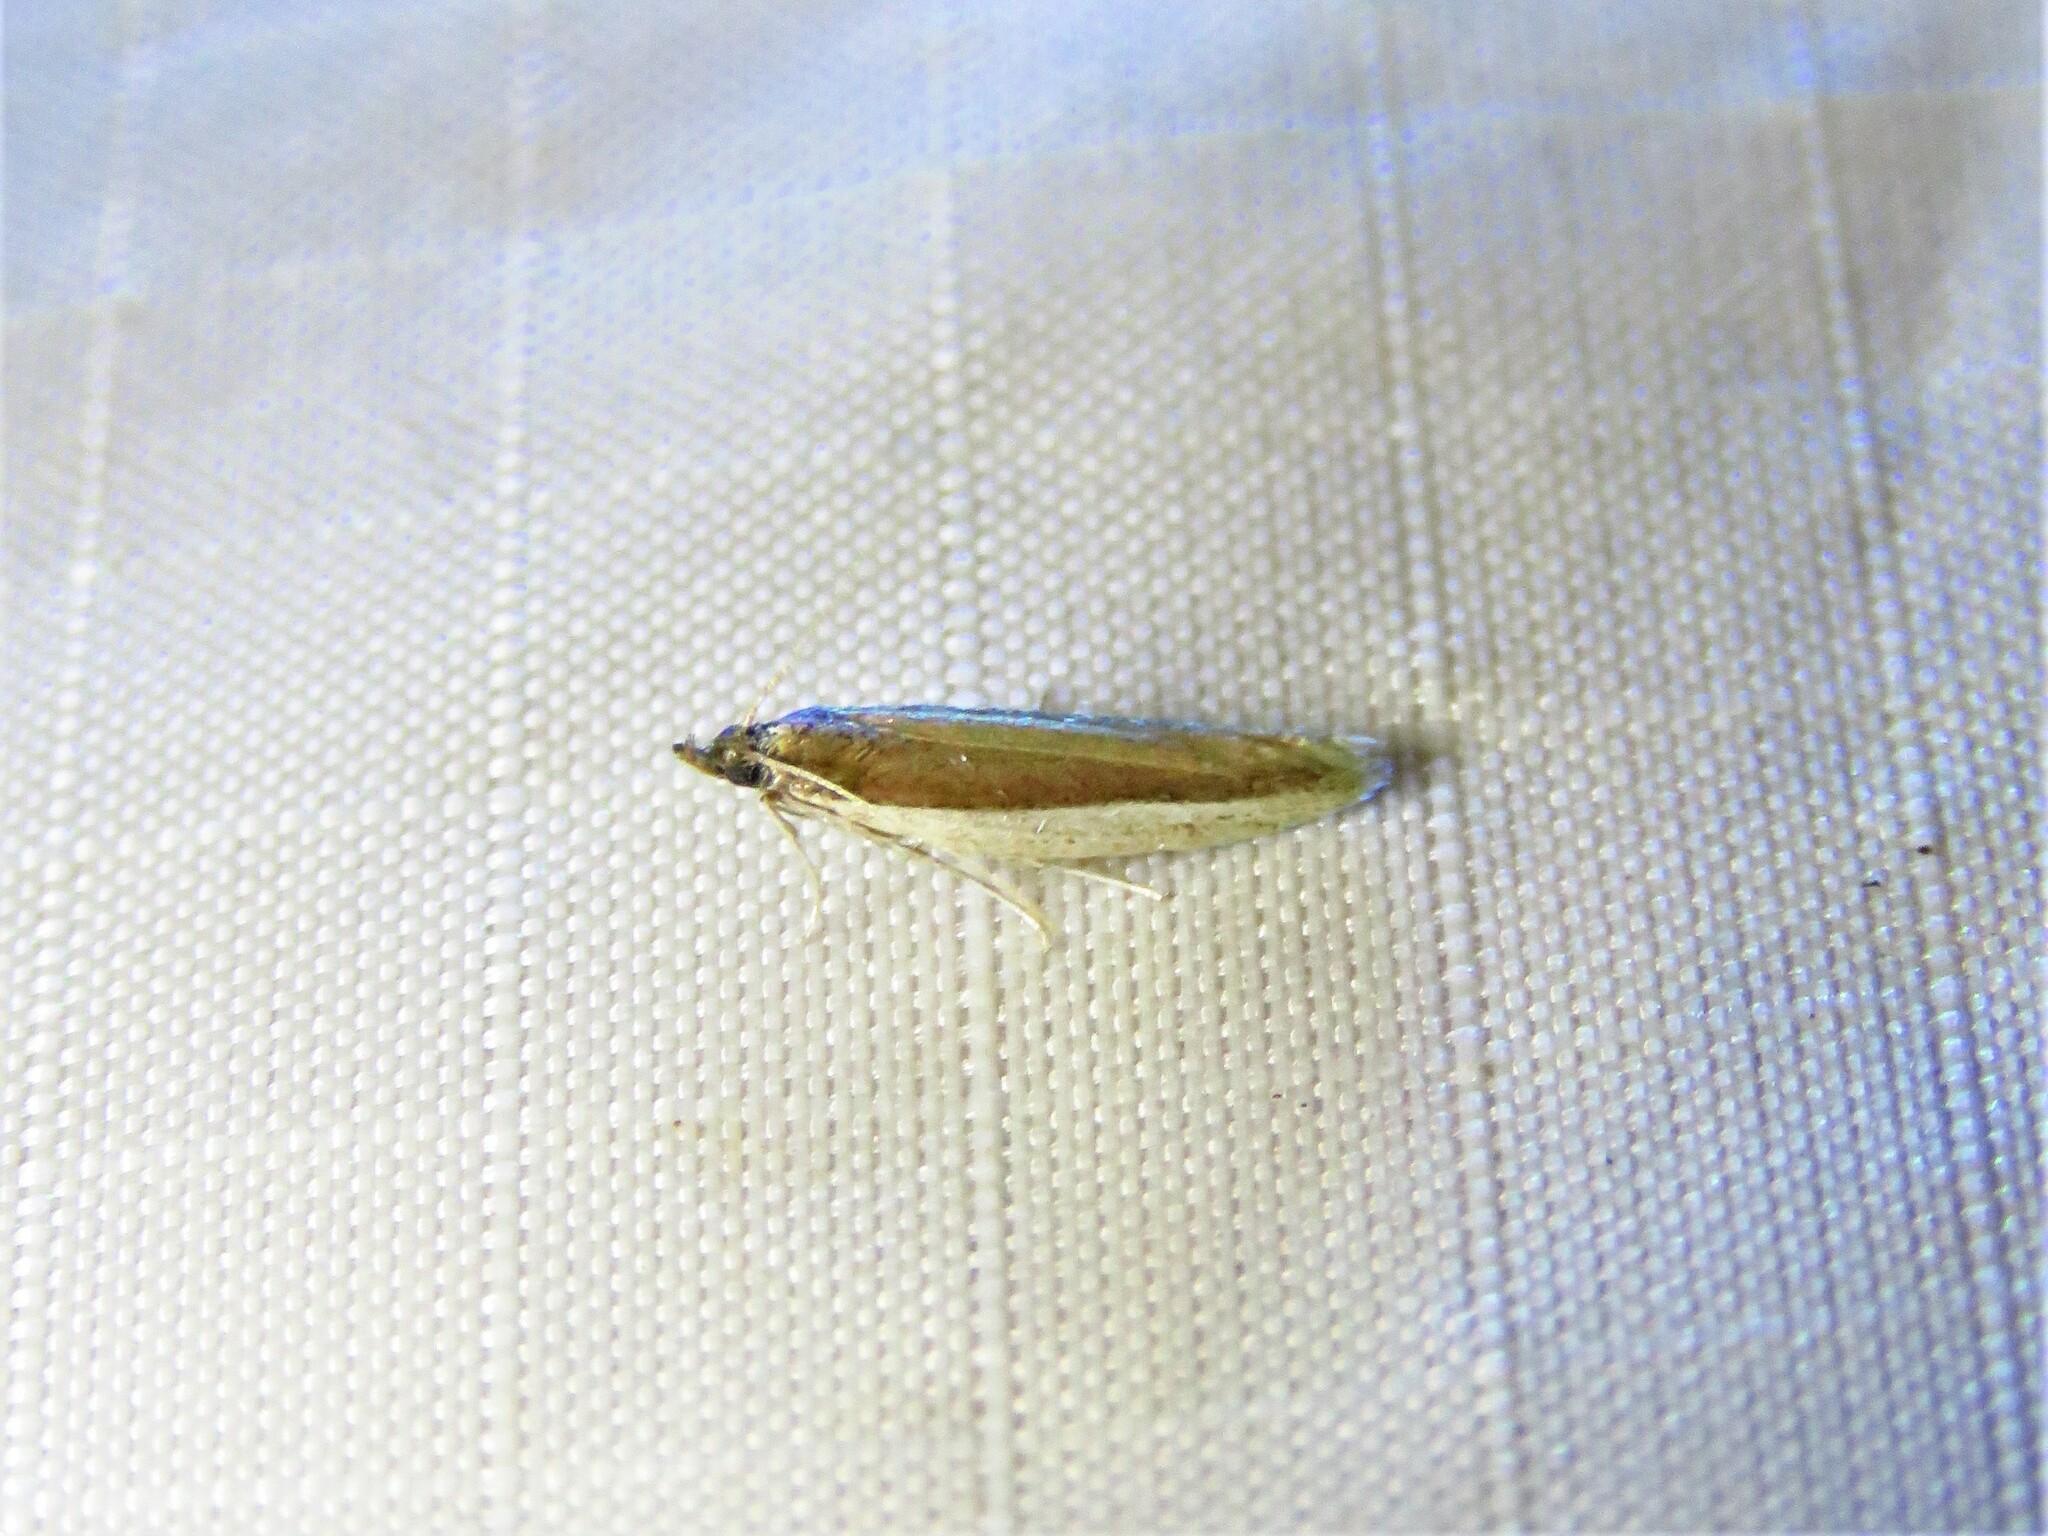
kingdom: Animalia
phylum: Arthropoda
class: Insecta
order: Lepidoptera
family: Pyralidae
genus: Tampa
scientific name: Tampa dimediatella
